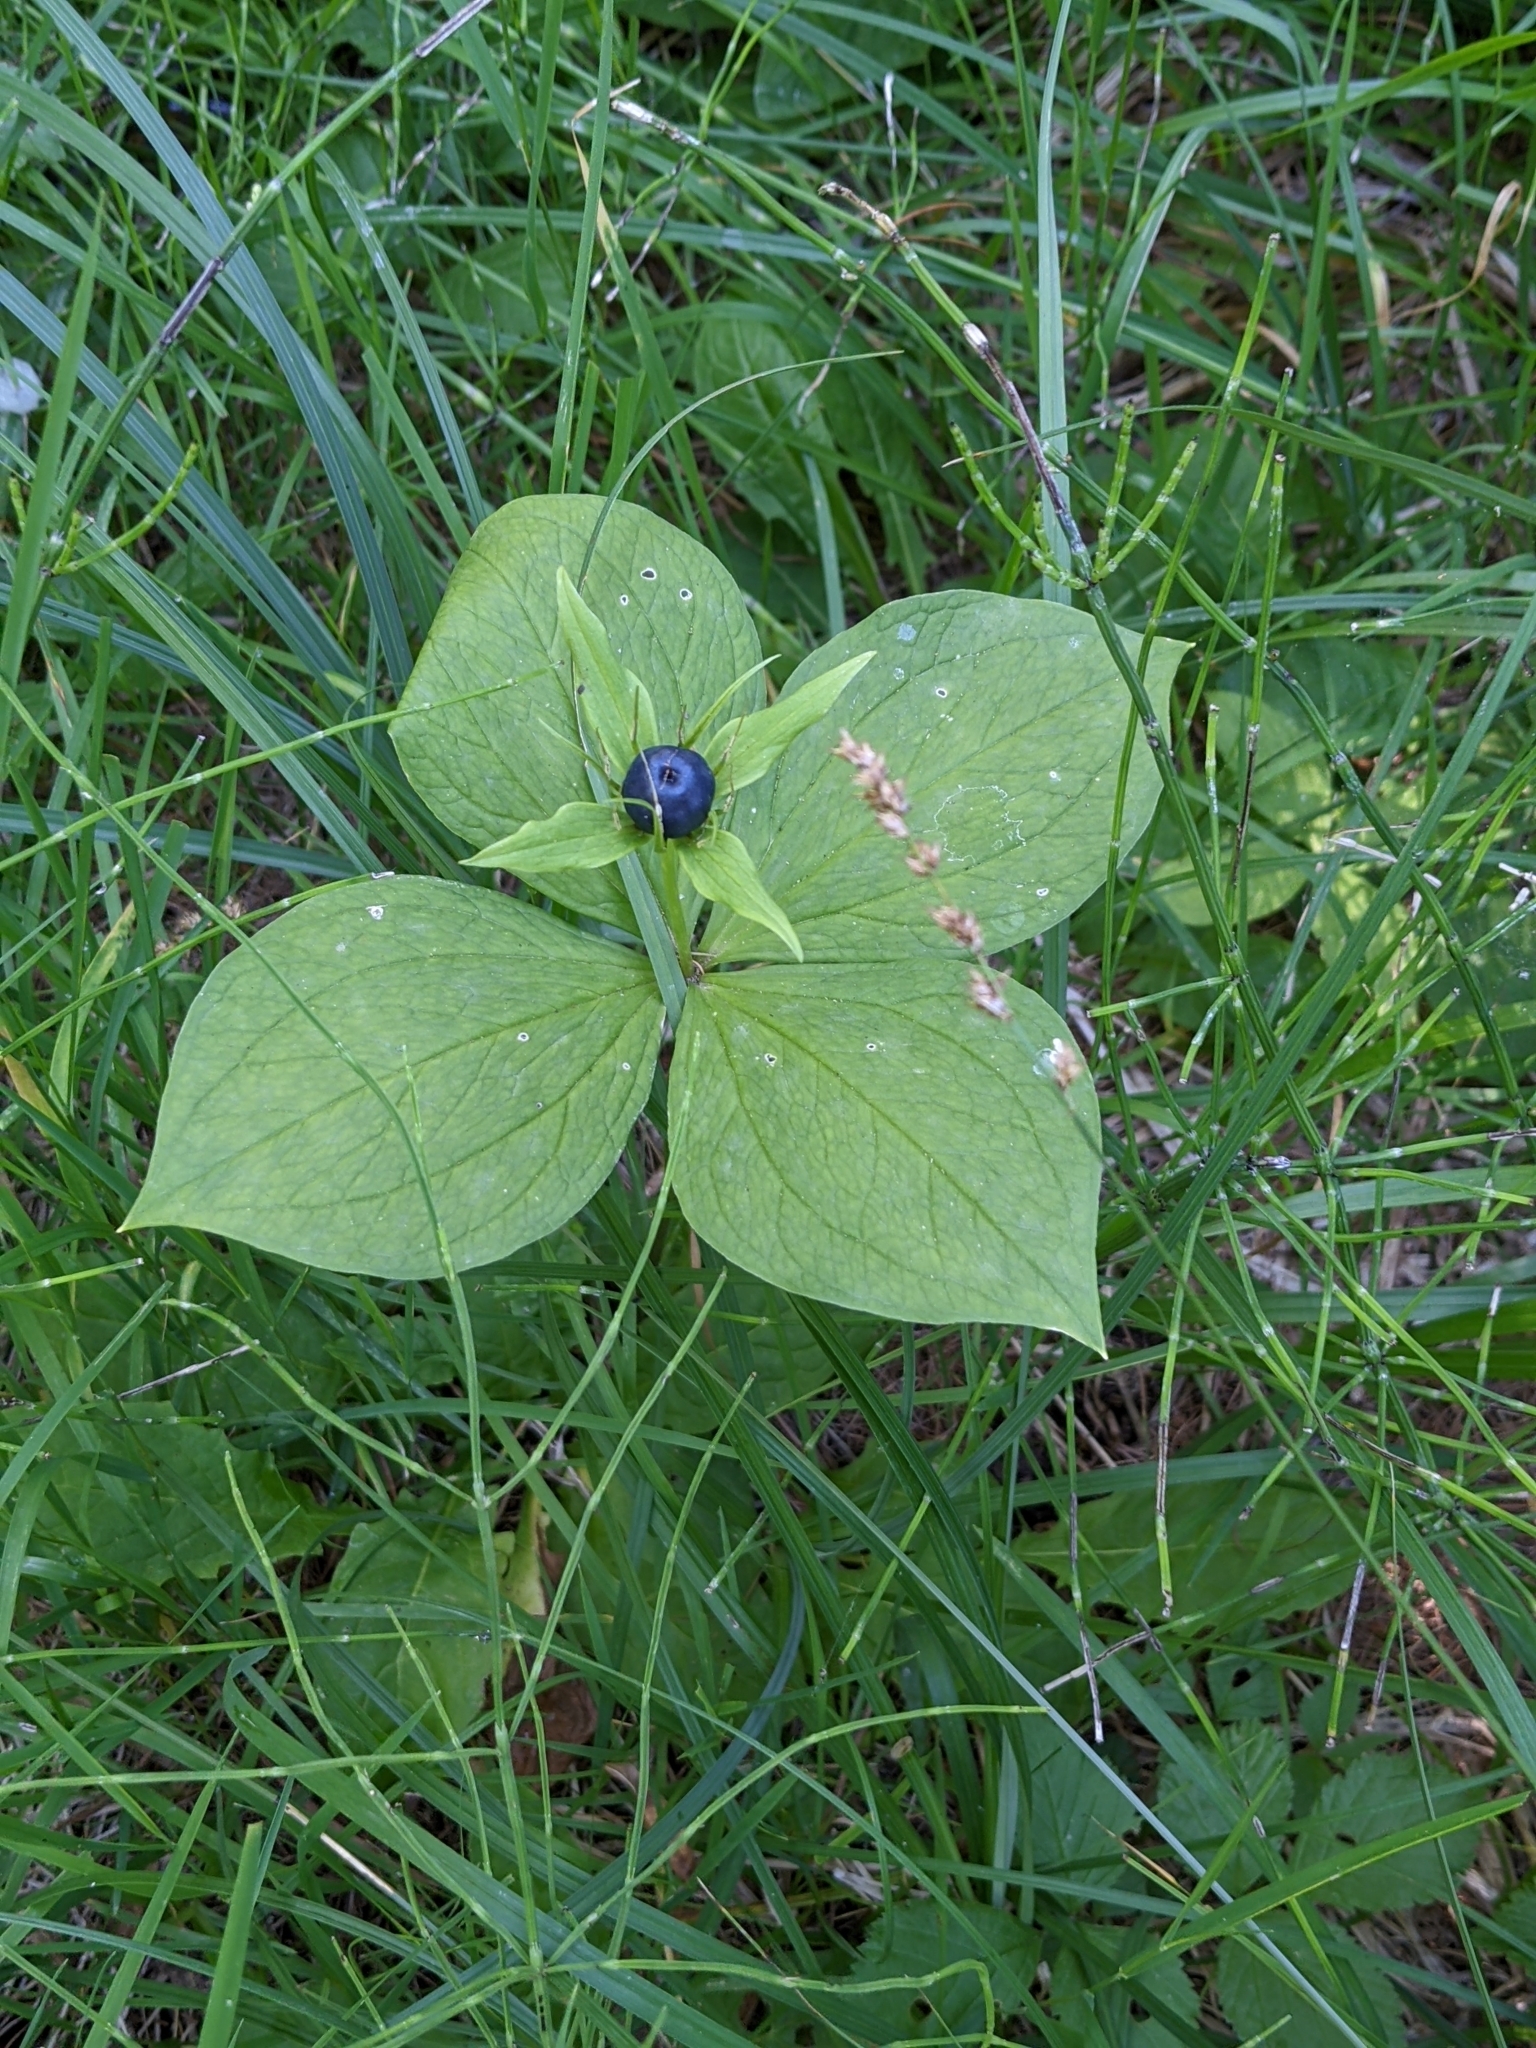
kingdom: Plantae
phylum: Tracheophyta
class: Liliopsida
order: Liliales
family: Melanthiaceae
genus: Paris
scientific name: Paris quadrifolia
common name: Herb-paris
